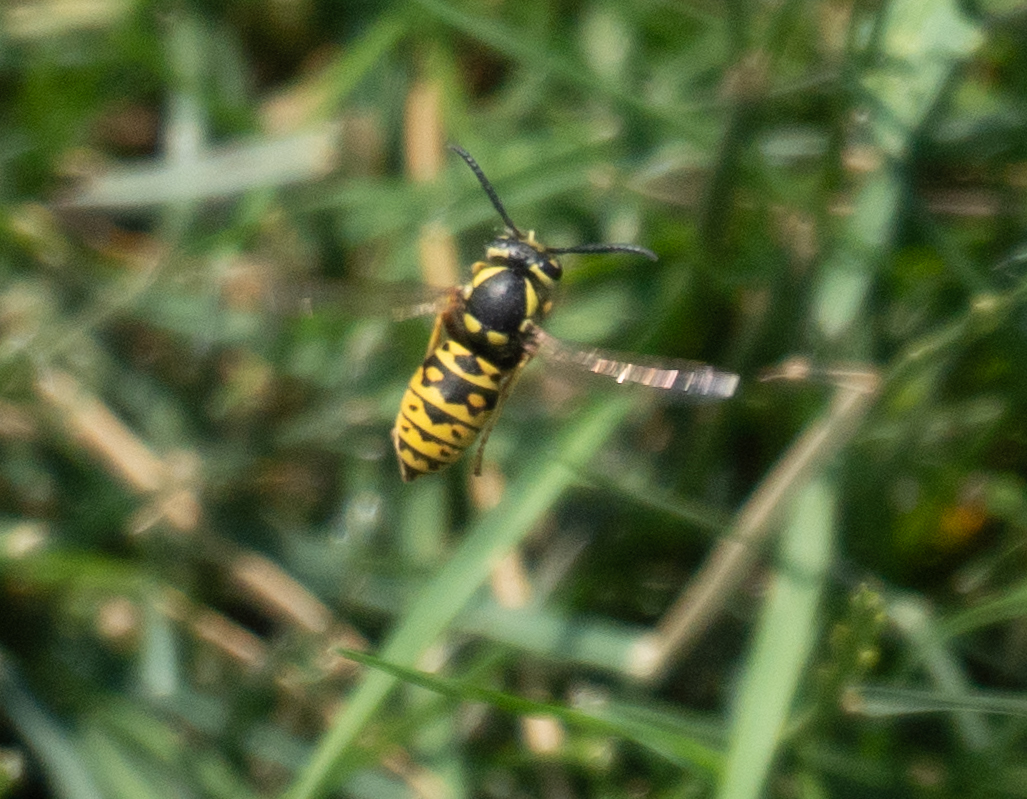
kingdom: Animalia
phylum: Arthropoda
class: Insecta
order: Hymenoptera
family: Vespidae
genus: Vespula
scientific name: Vespula atropilosa
